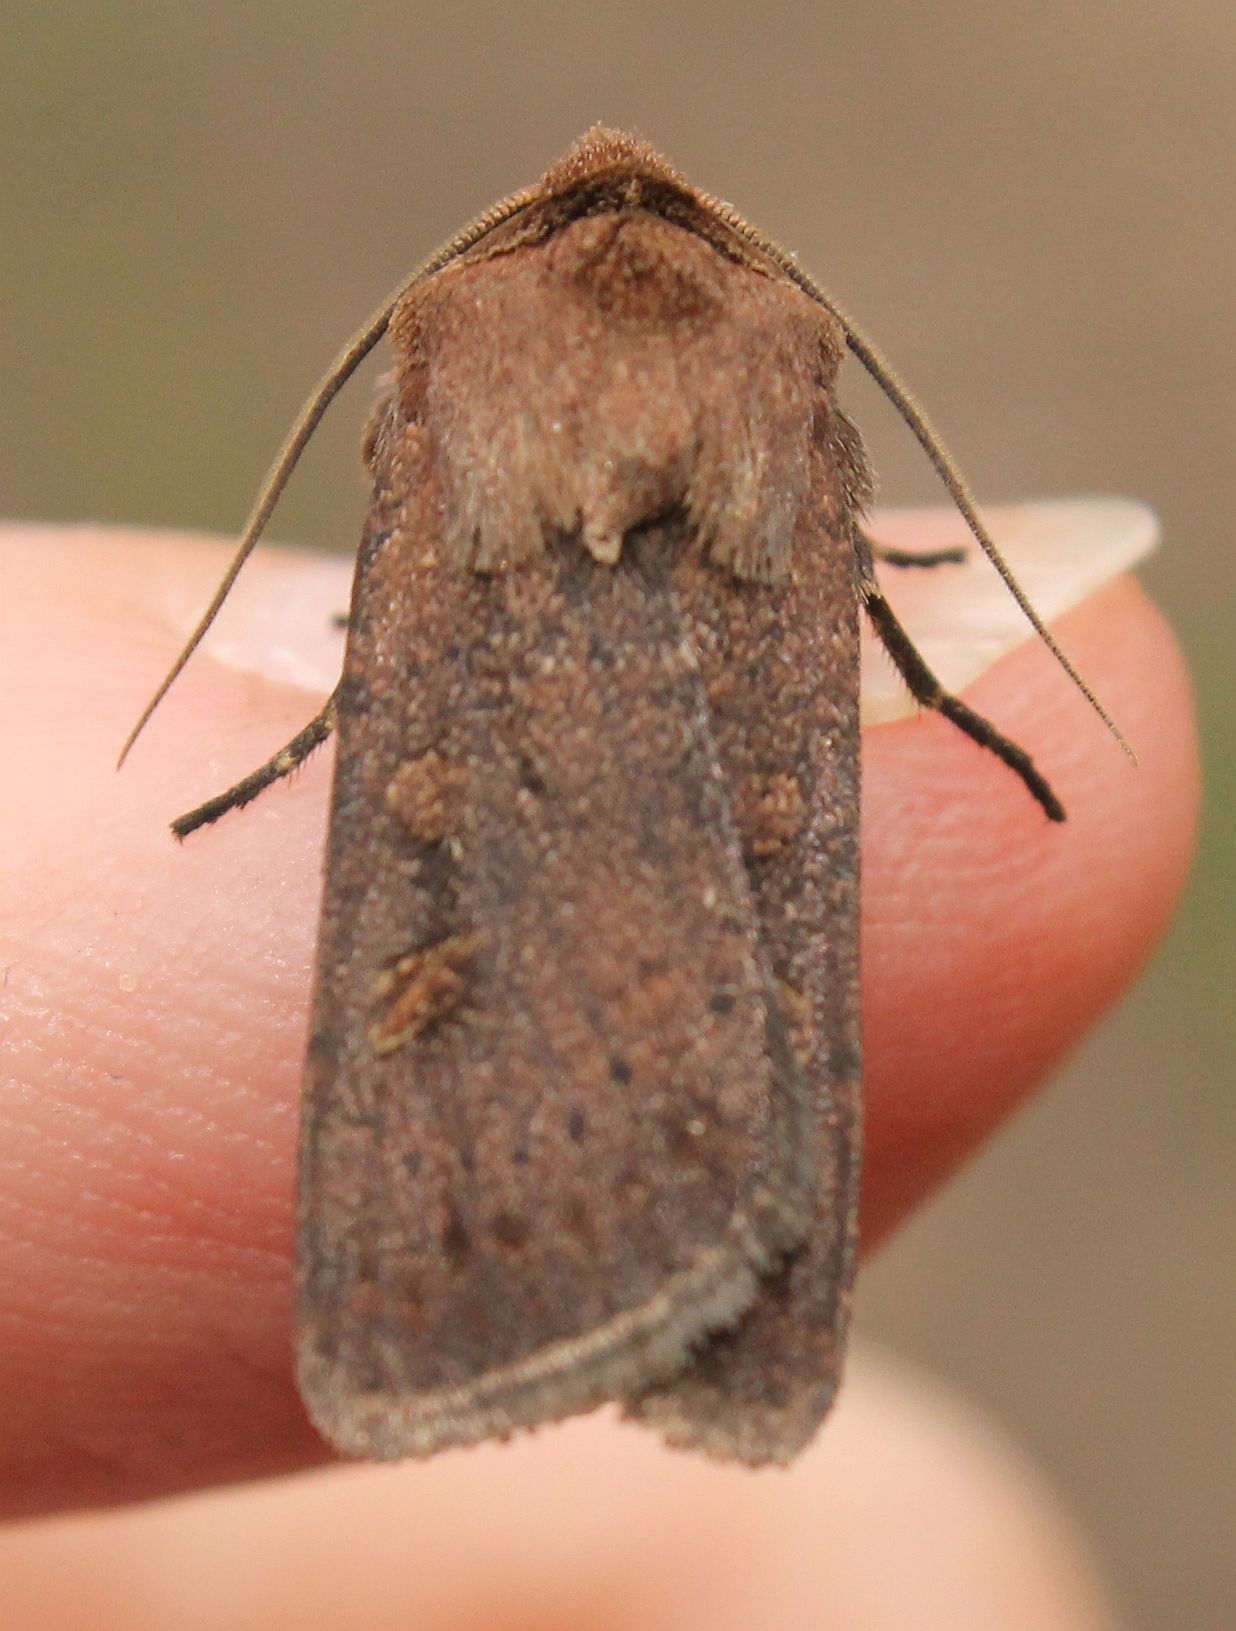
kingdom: Animalia
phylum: Arthropoda
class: Insecta
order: Lepidoptera
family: Noctuidae
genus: Xestia
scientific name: Xestia xanthographa
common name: Square-spot rustic
